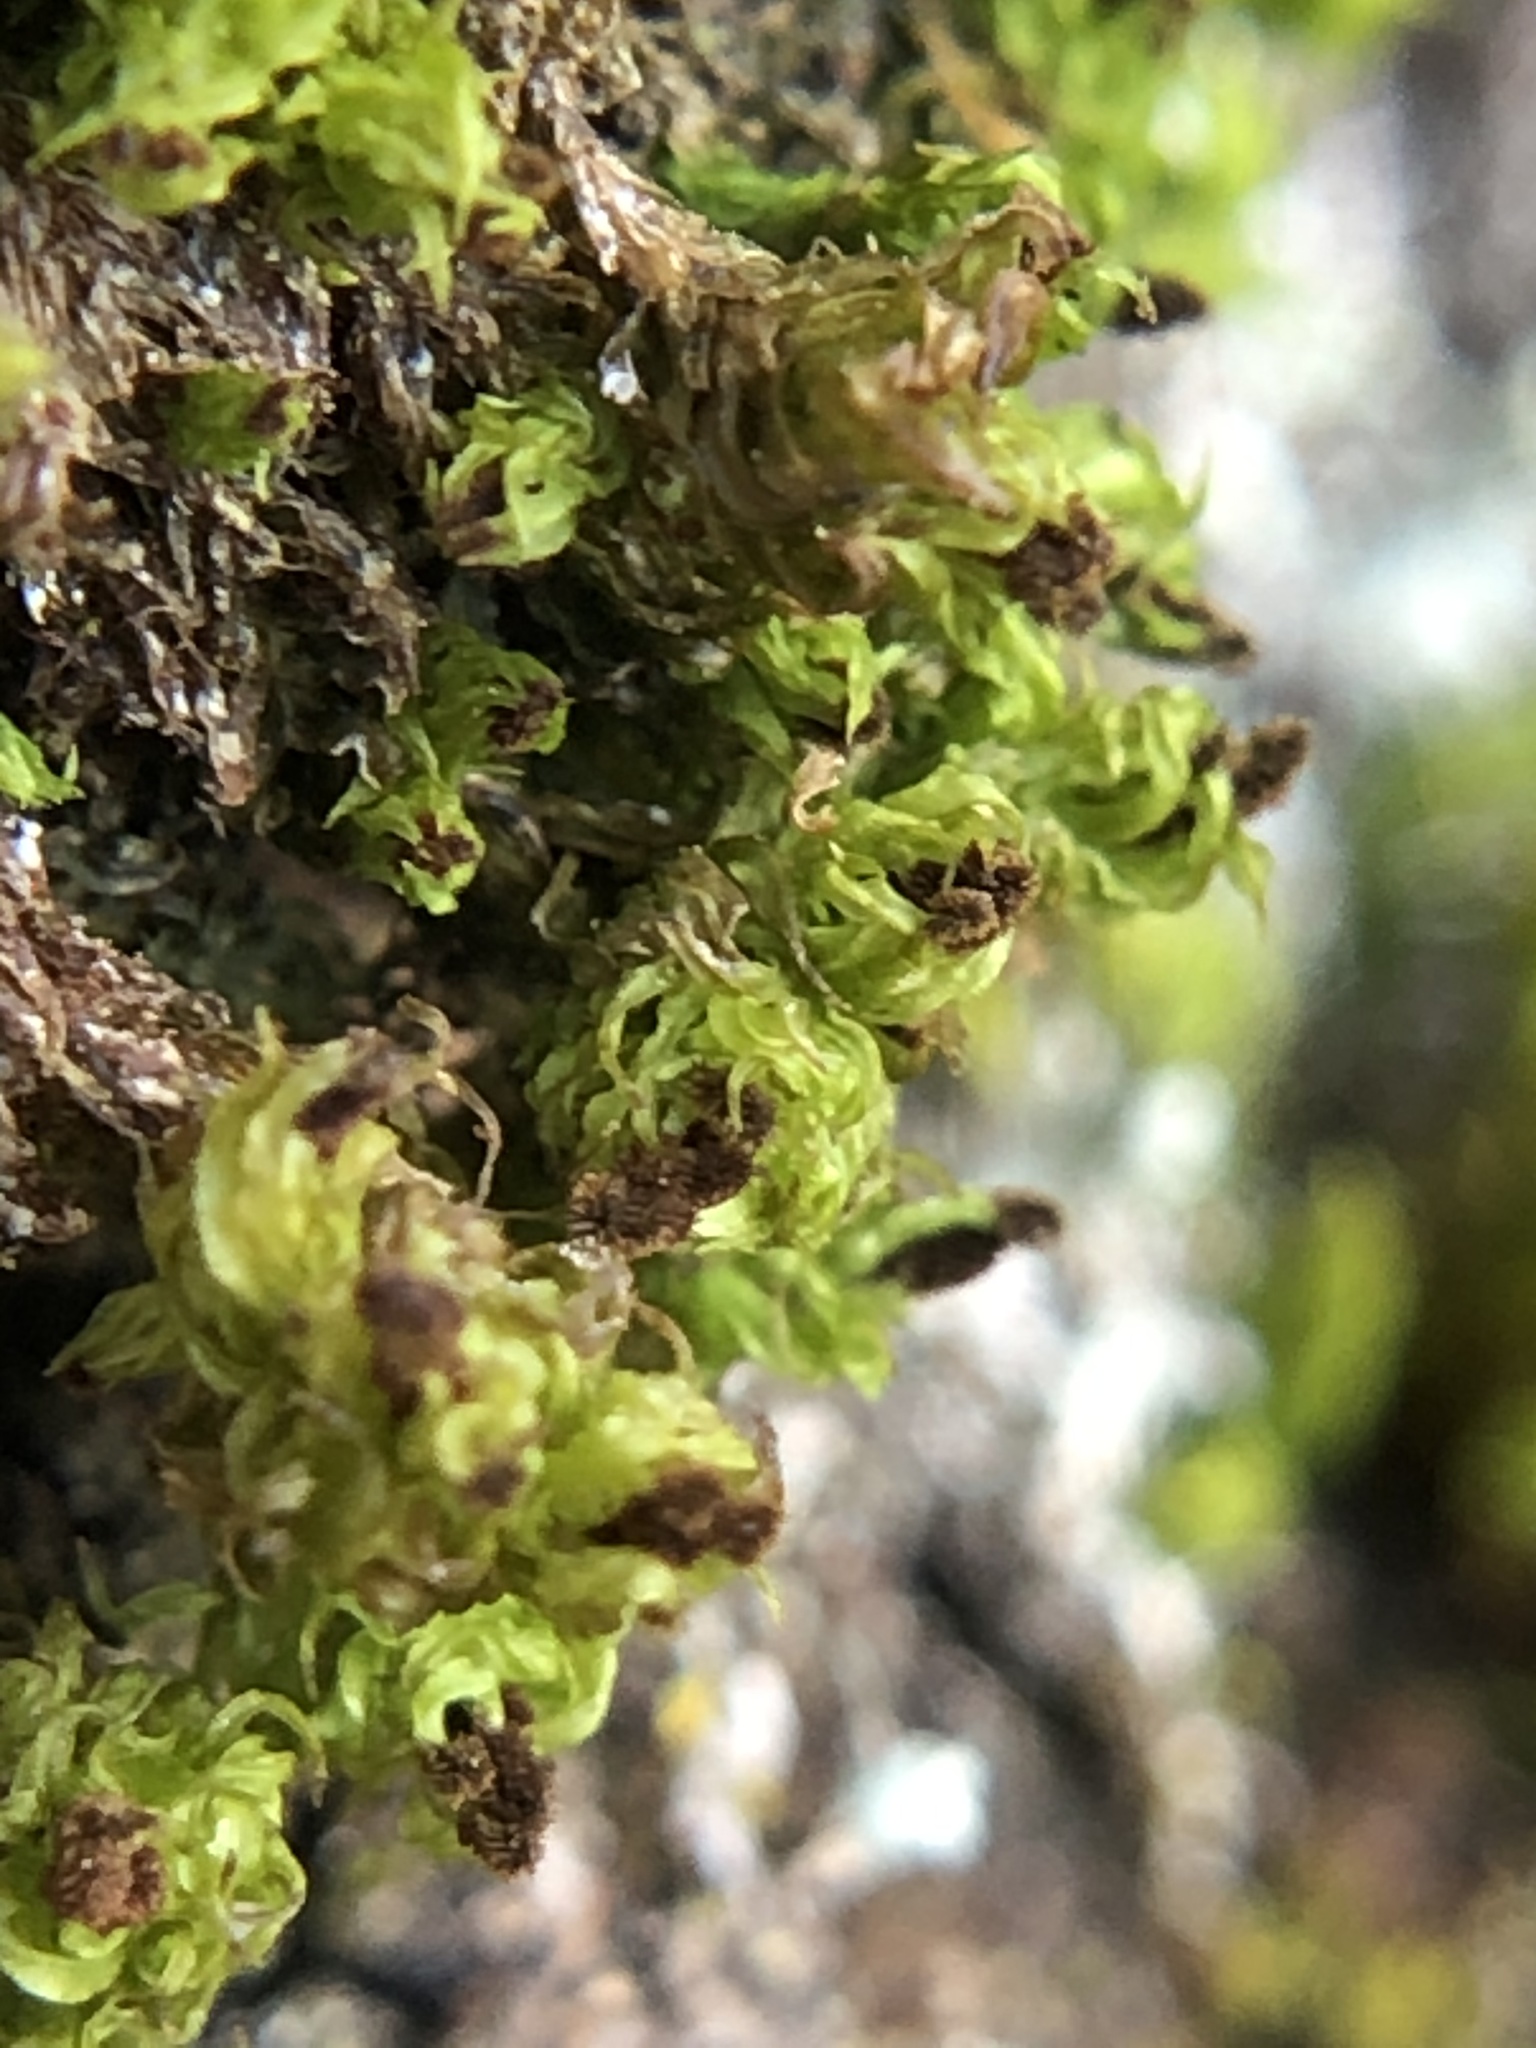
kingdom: Plantae
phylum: Bryophyta
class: Bryopsida
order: Orthotrichales
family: Orthotrichaceae
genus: Plenogemma
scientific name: Plenogemma phyllantha
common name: Frizzled pincushion
